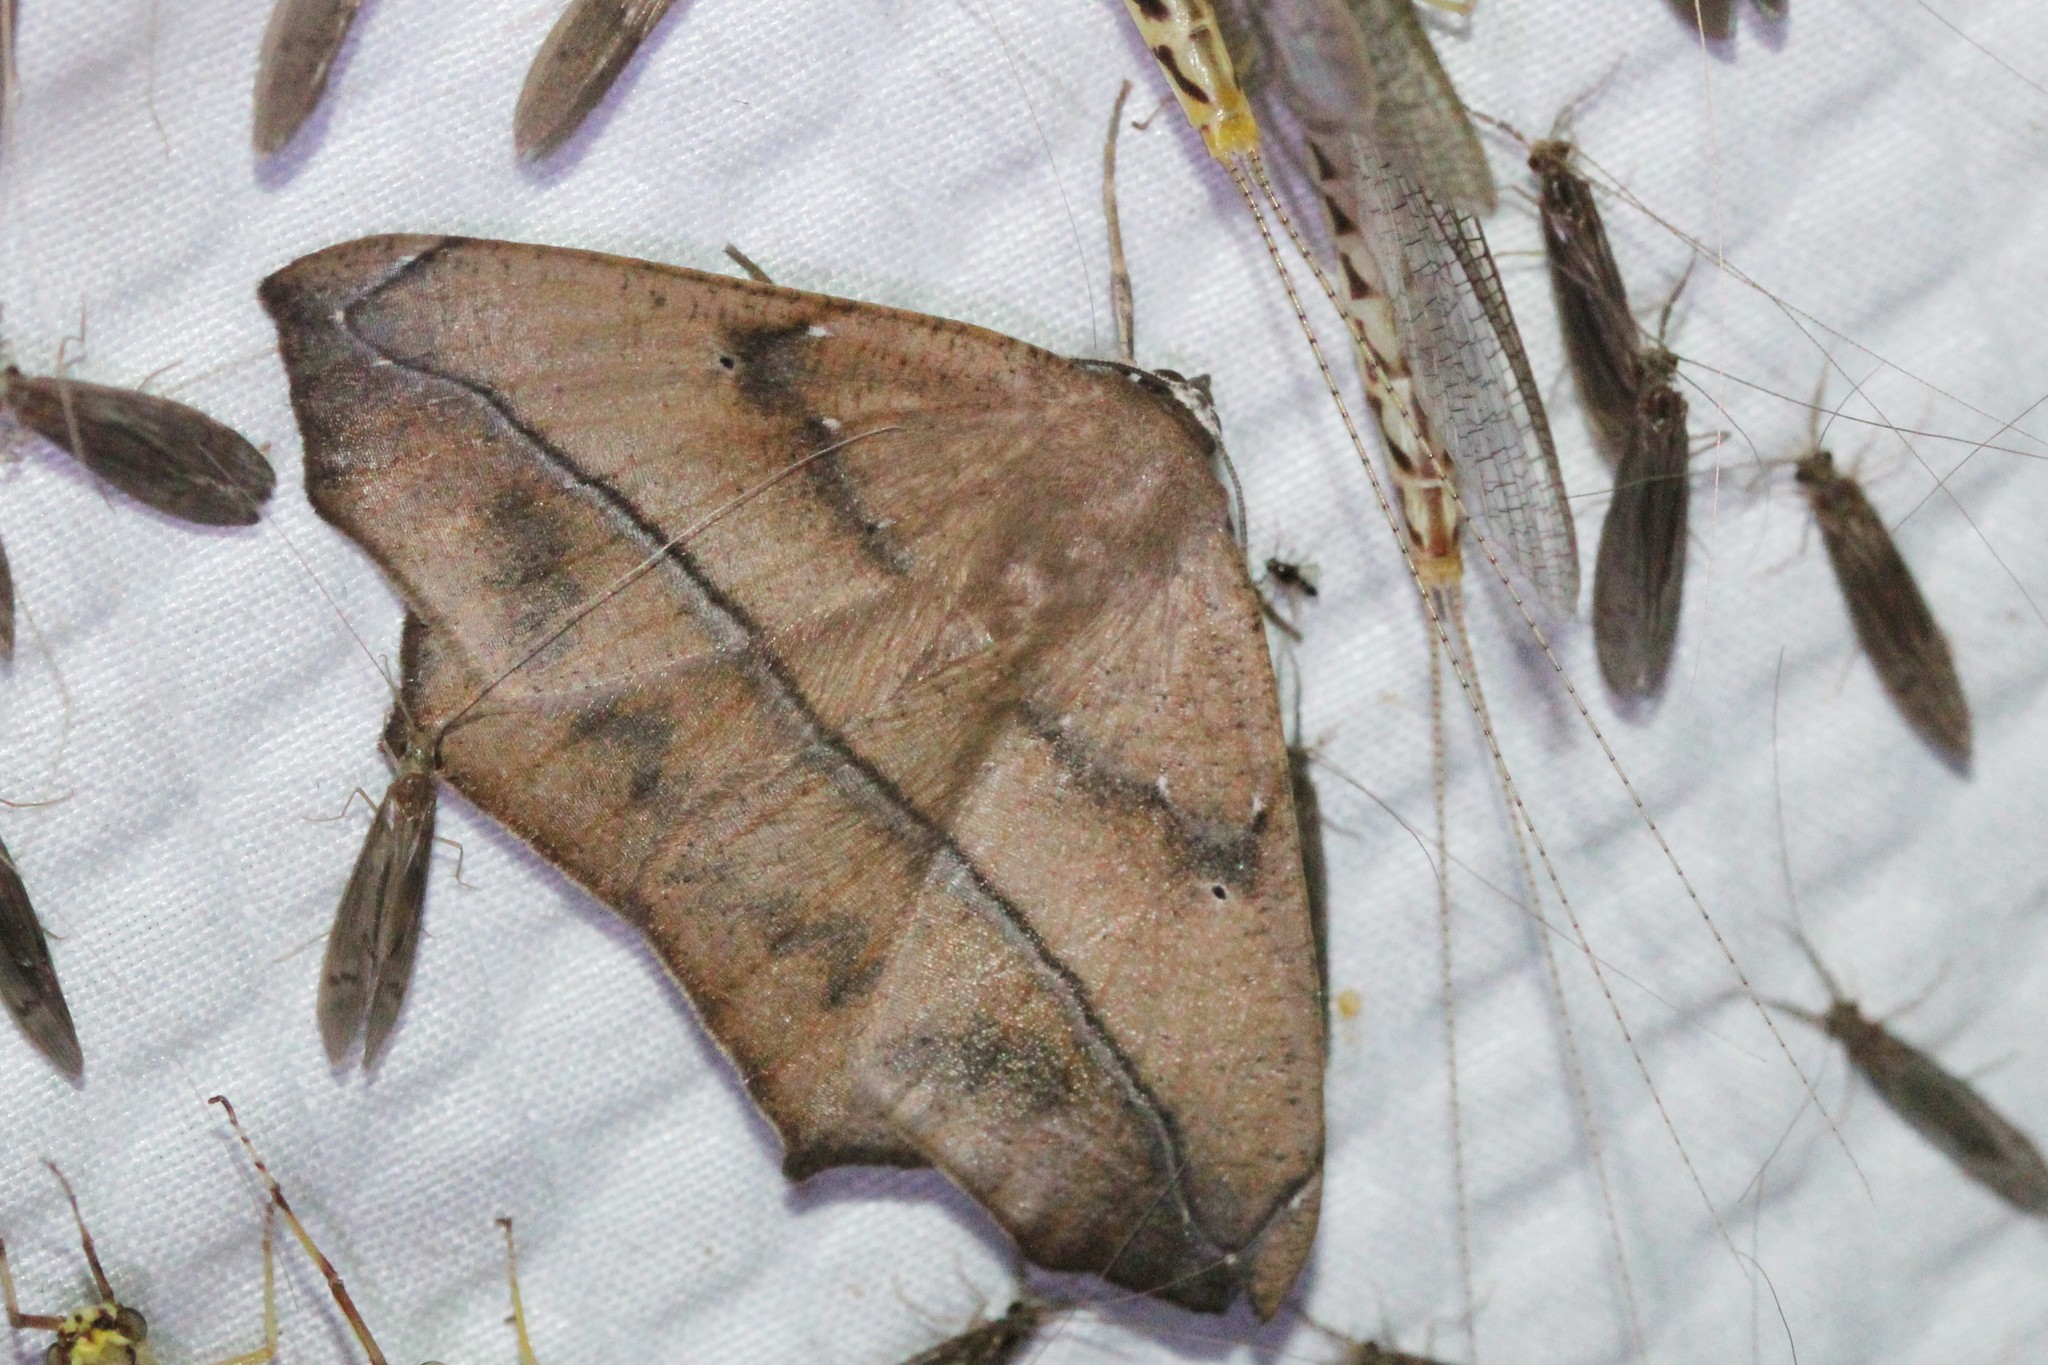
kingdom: Animalia
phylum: Arthropoda
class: Insecta
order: Lepidoptera
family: Geometridae
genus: Prochoerodes
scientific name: Prochoerodes lineola
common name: Large maple spanworm
